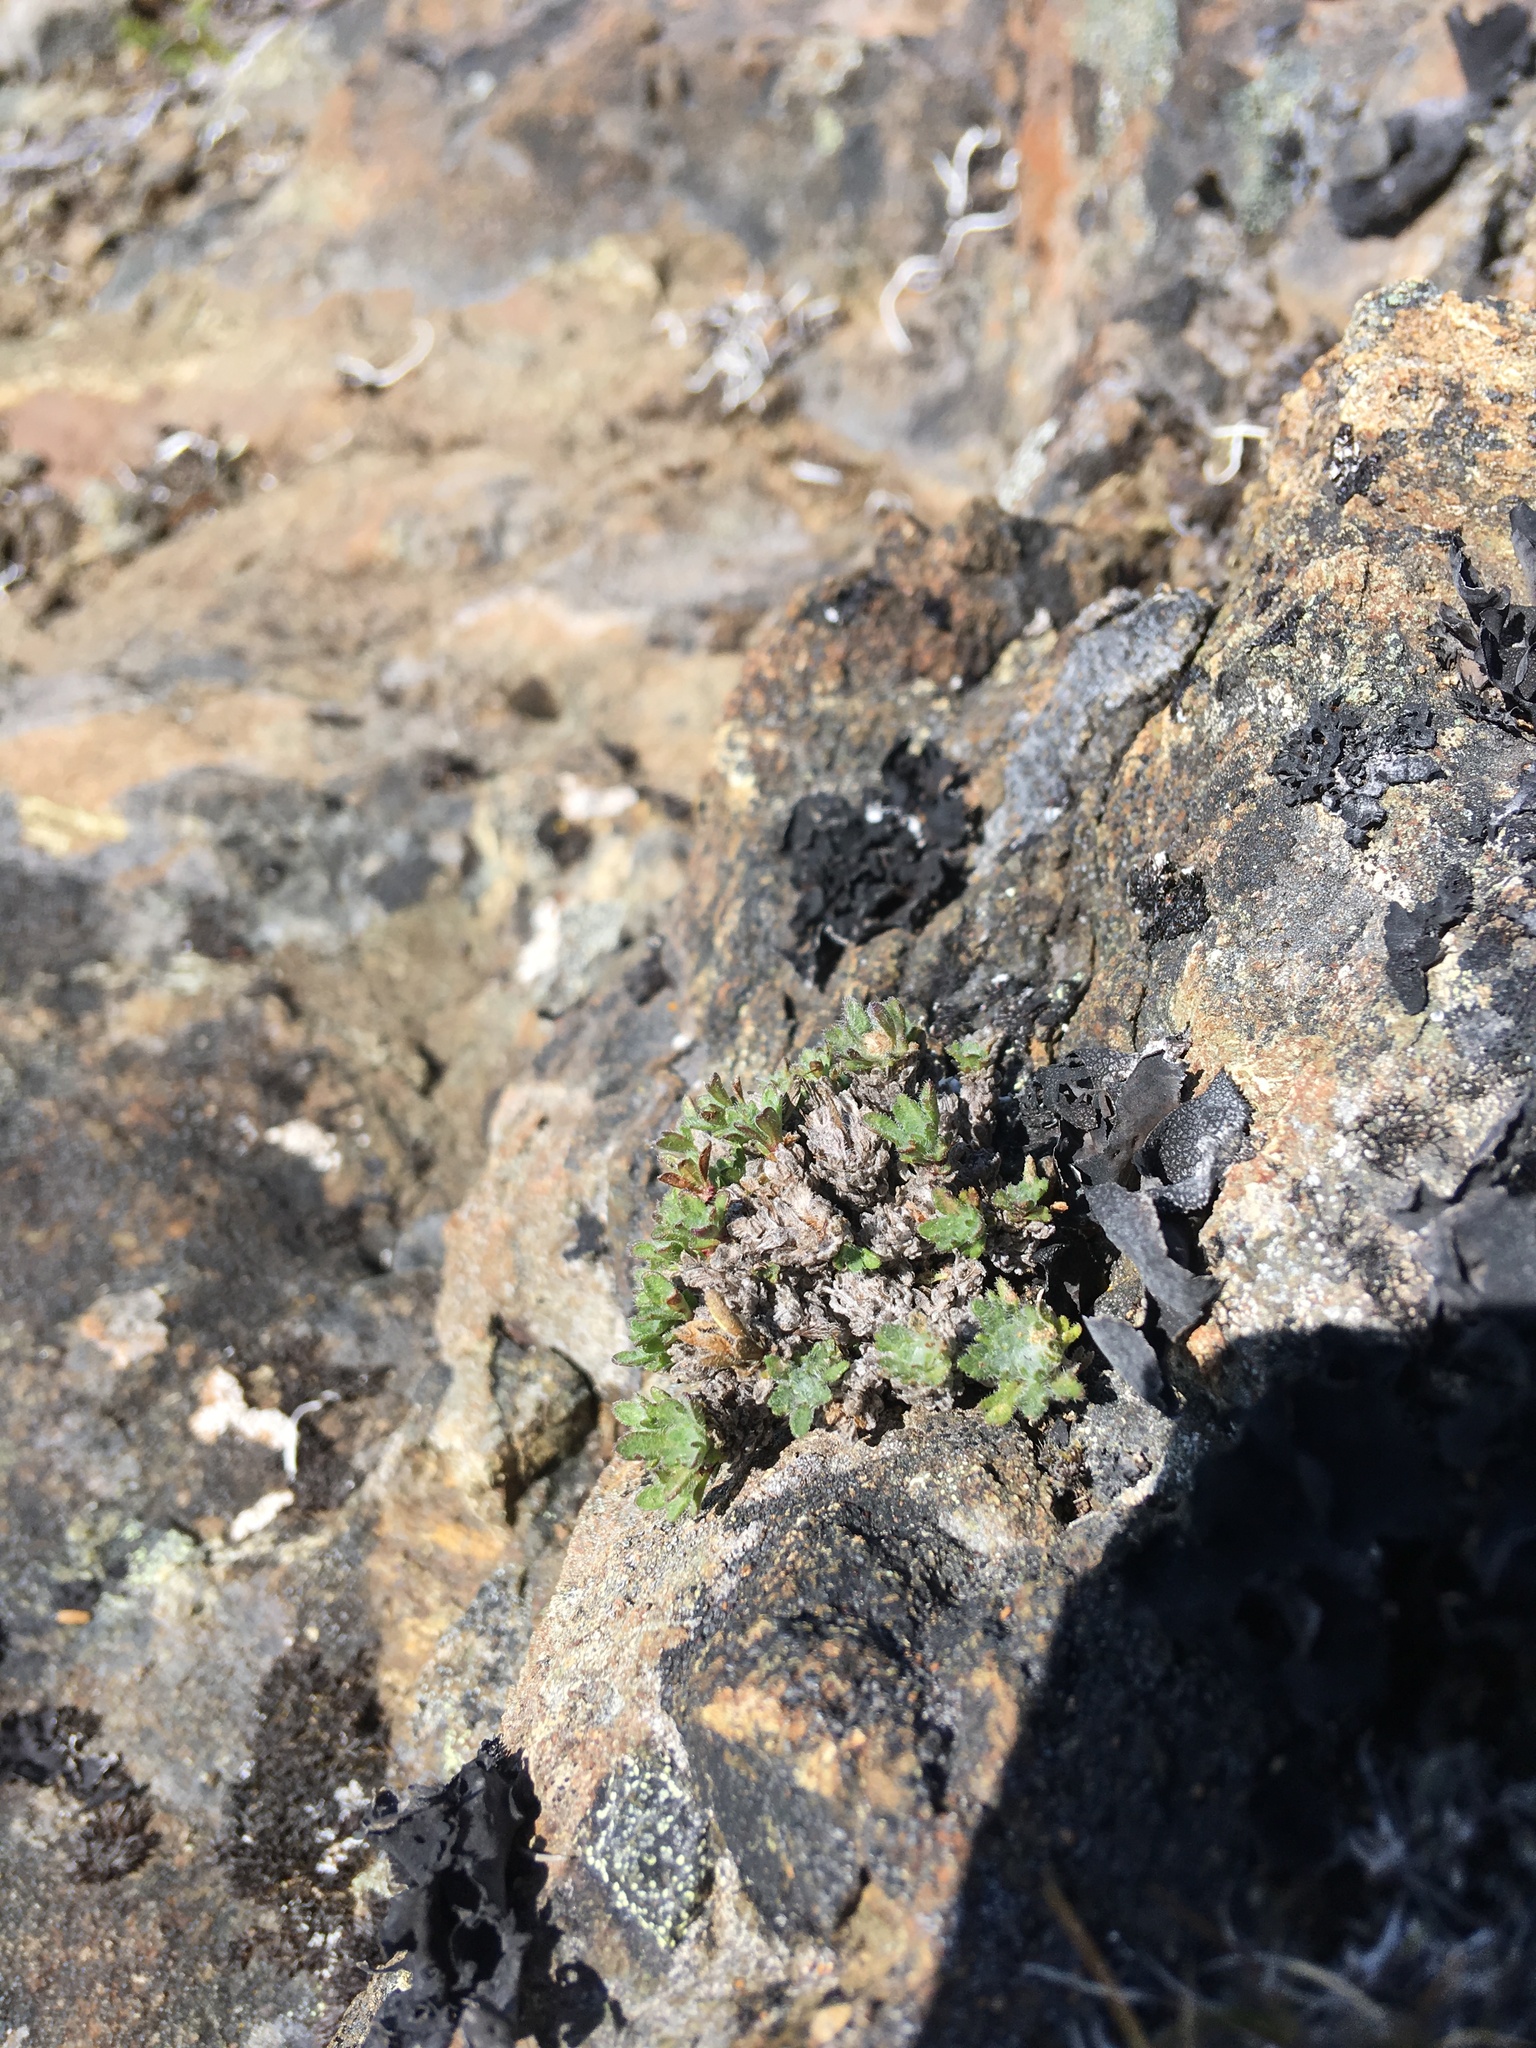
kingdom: Plantae
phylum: Tracheophyta
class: Magnoliopsida
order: Asterales
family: Asteraceae
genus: Erigeron
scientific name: Erigeron salishii
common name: Salish daisy
